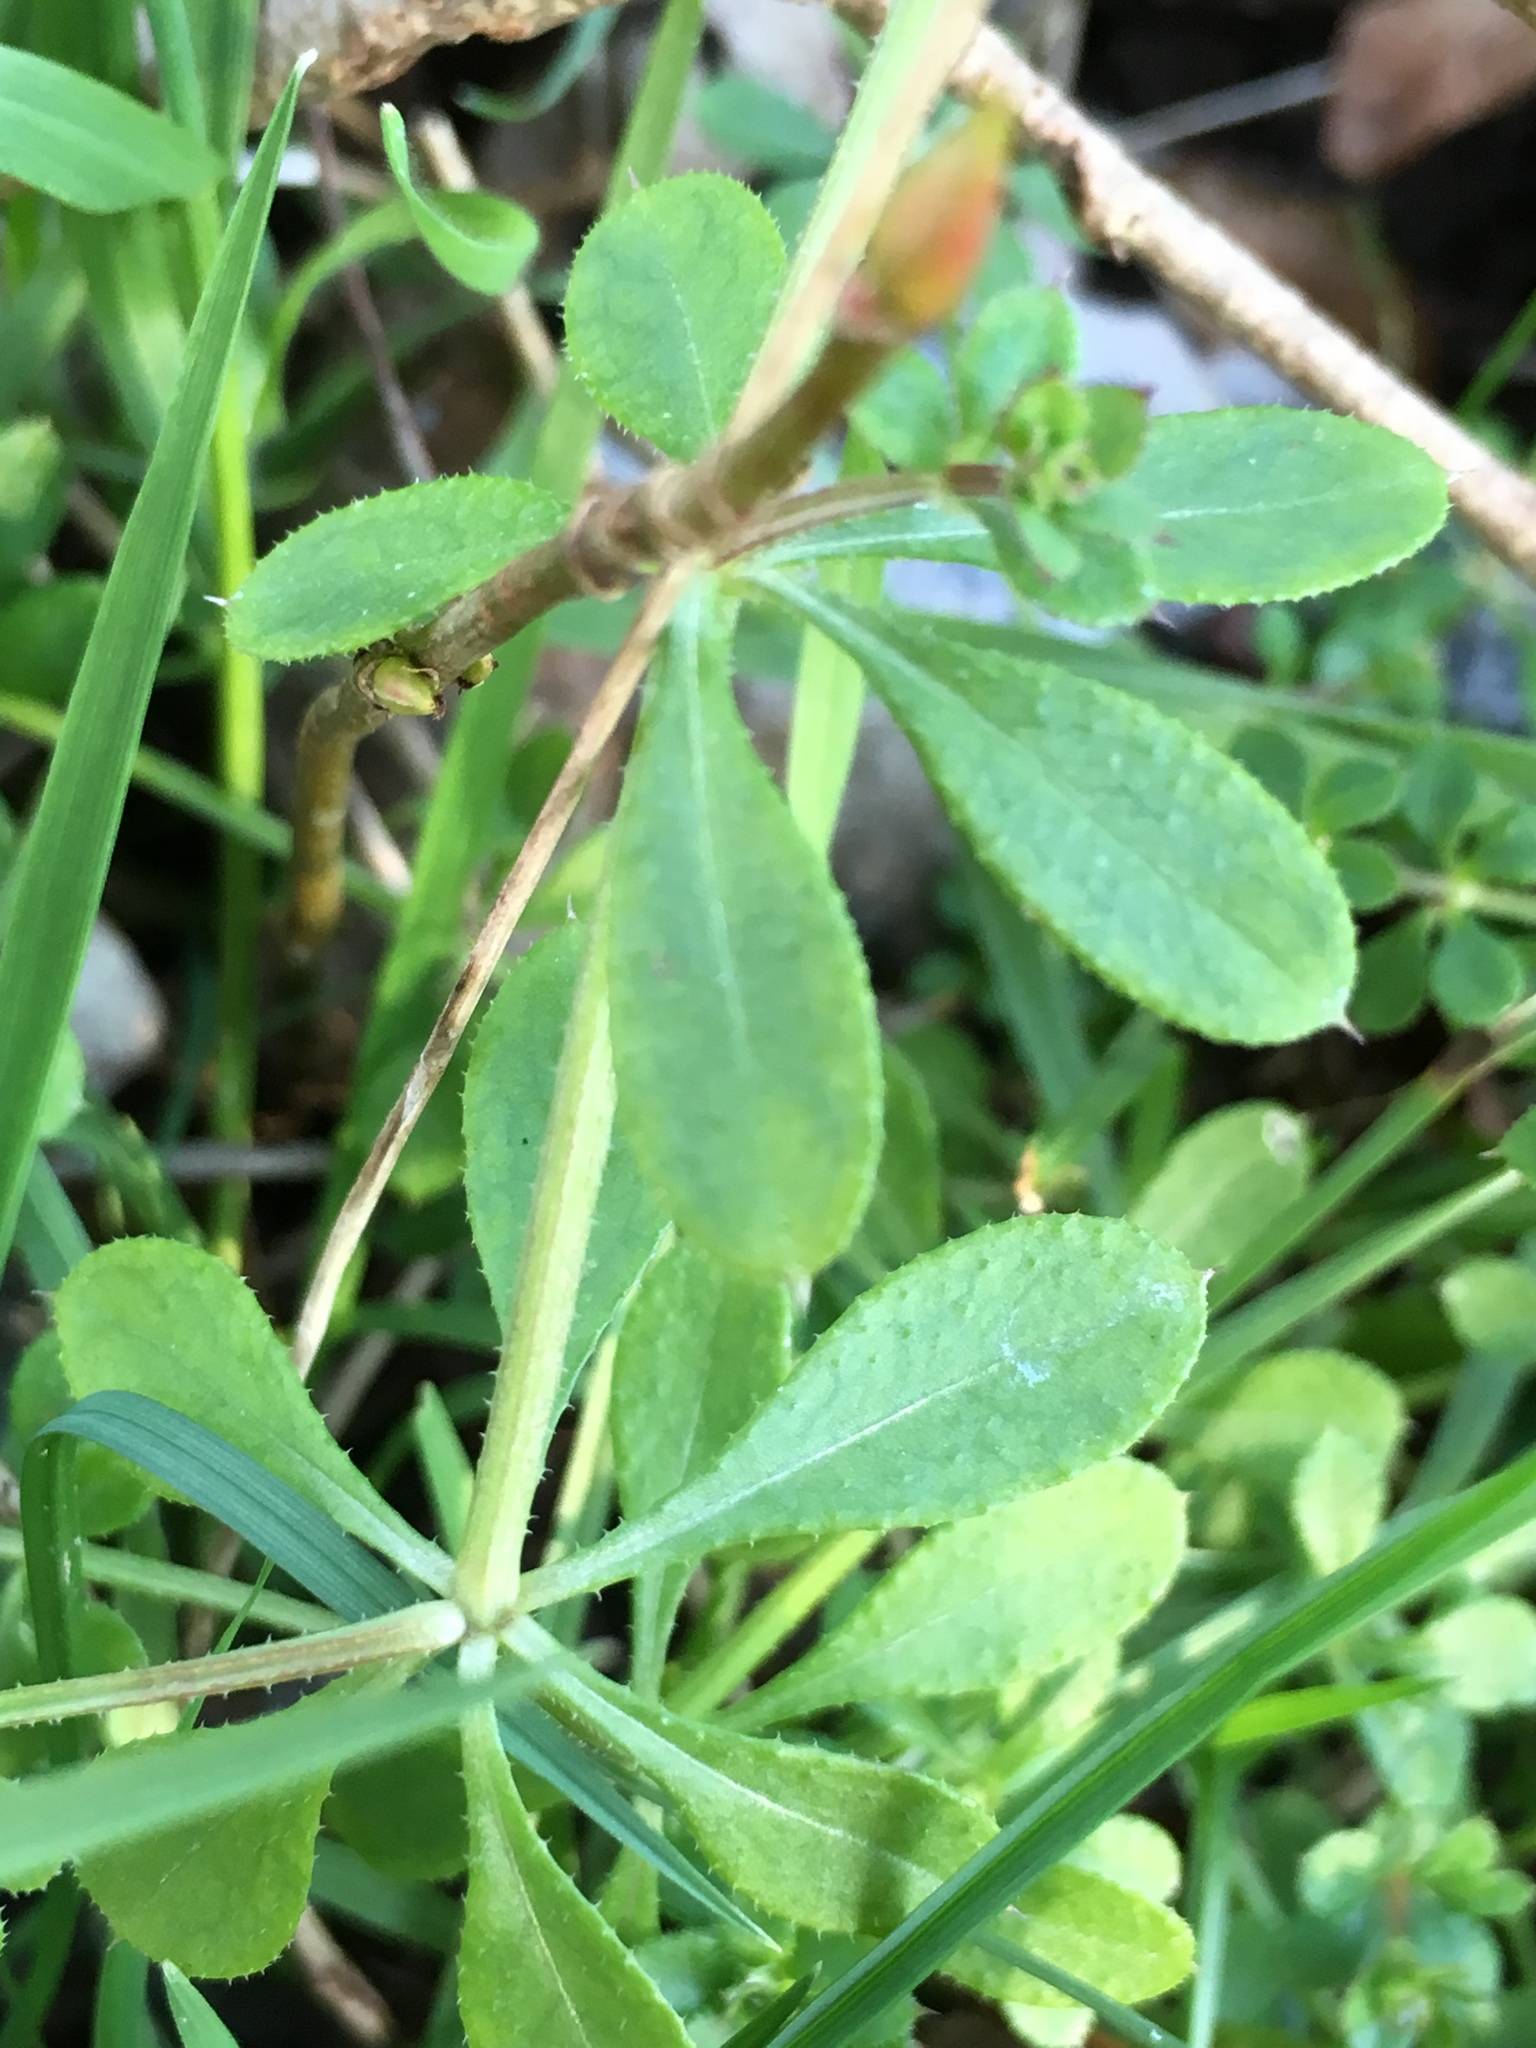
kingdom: Plantae
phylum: Tracheophyta
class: Magnoliopsida
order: Gentianales
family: Rubiaceae
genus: Galium
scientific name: Galium aparine
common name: Cleavers
